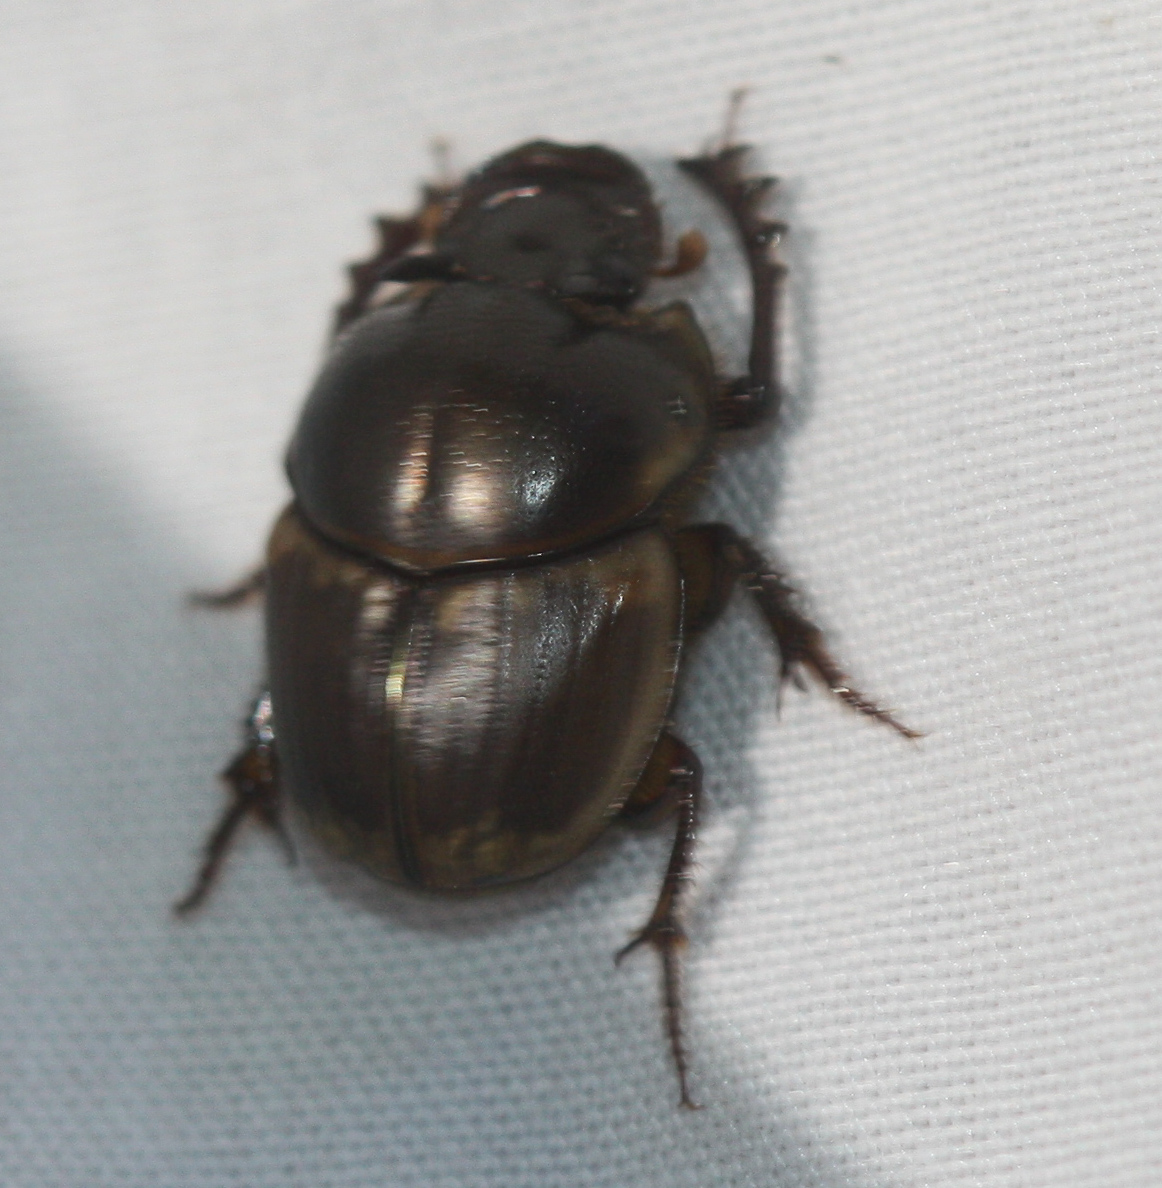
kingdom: Animalia
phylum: Arthropoda
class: Insecta
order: Coleoptera
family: Scarabaeidae
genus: Digitonthophagus
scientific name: Digitonthophagus gazella
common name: Brown dung beetle
